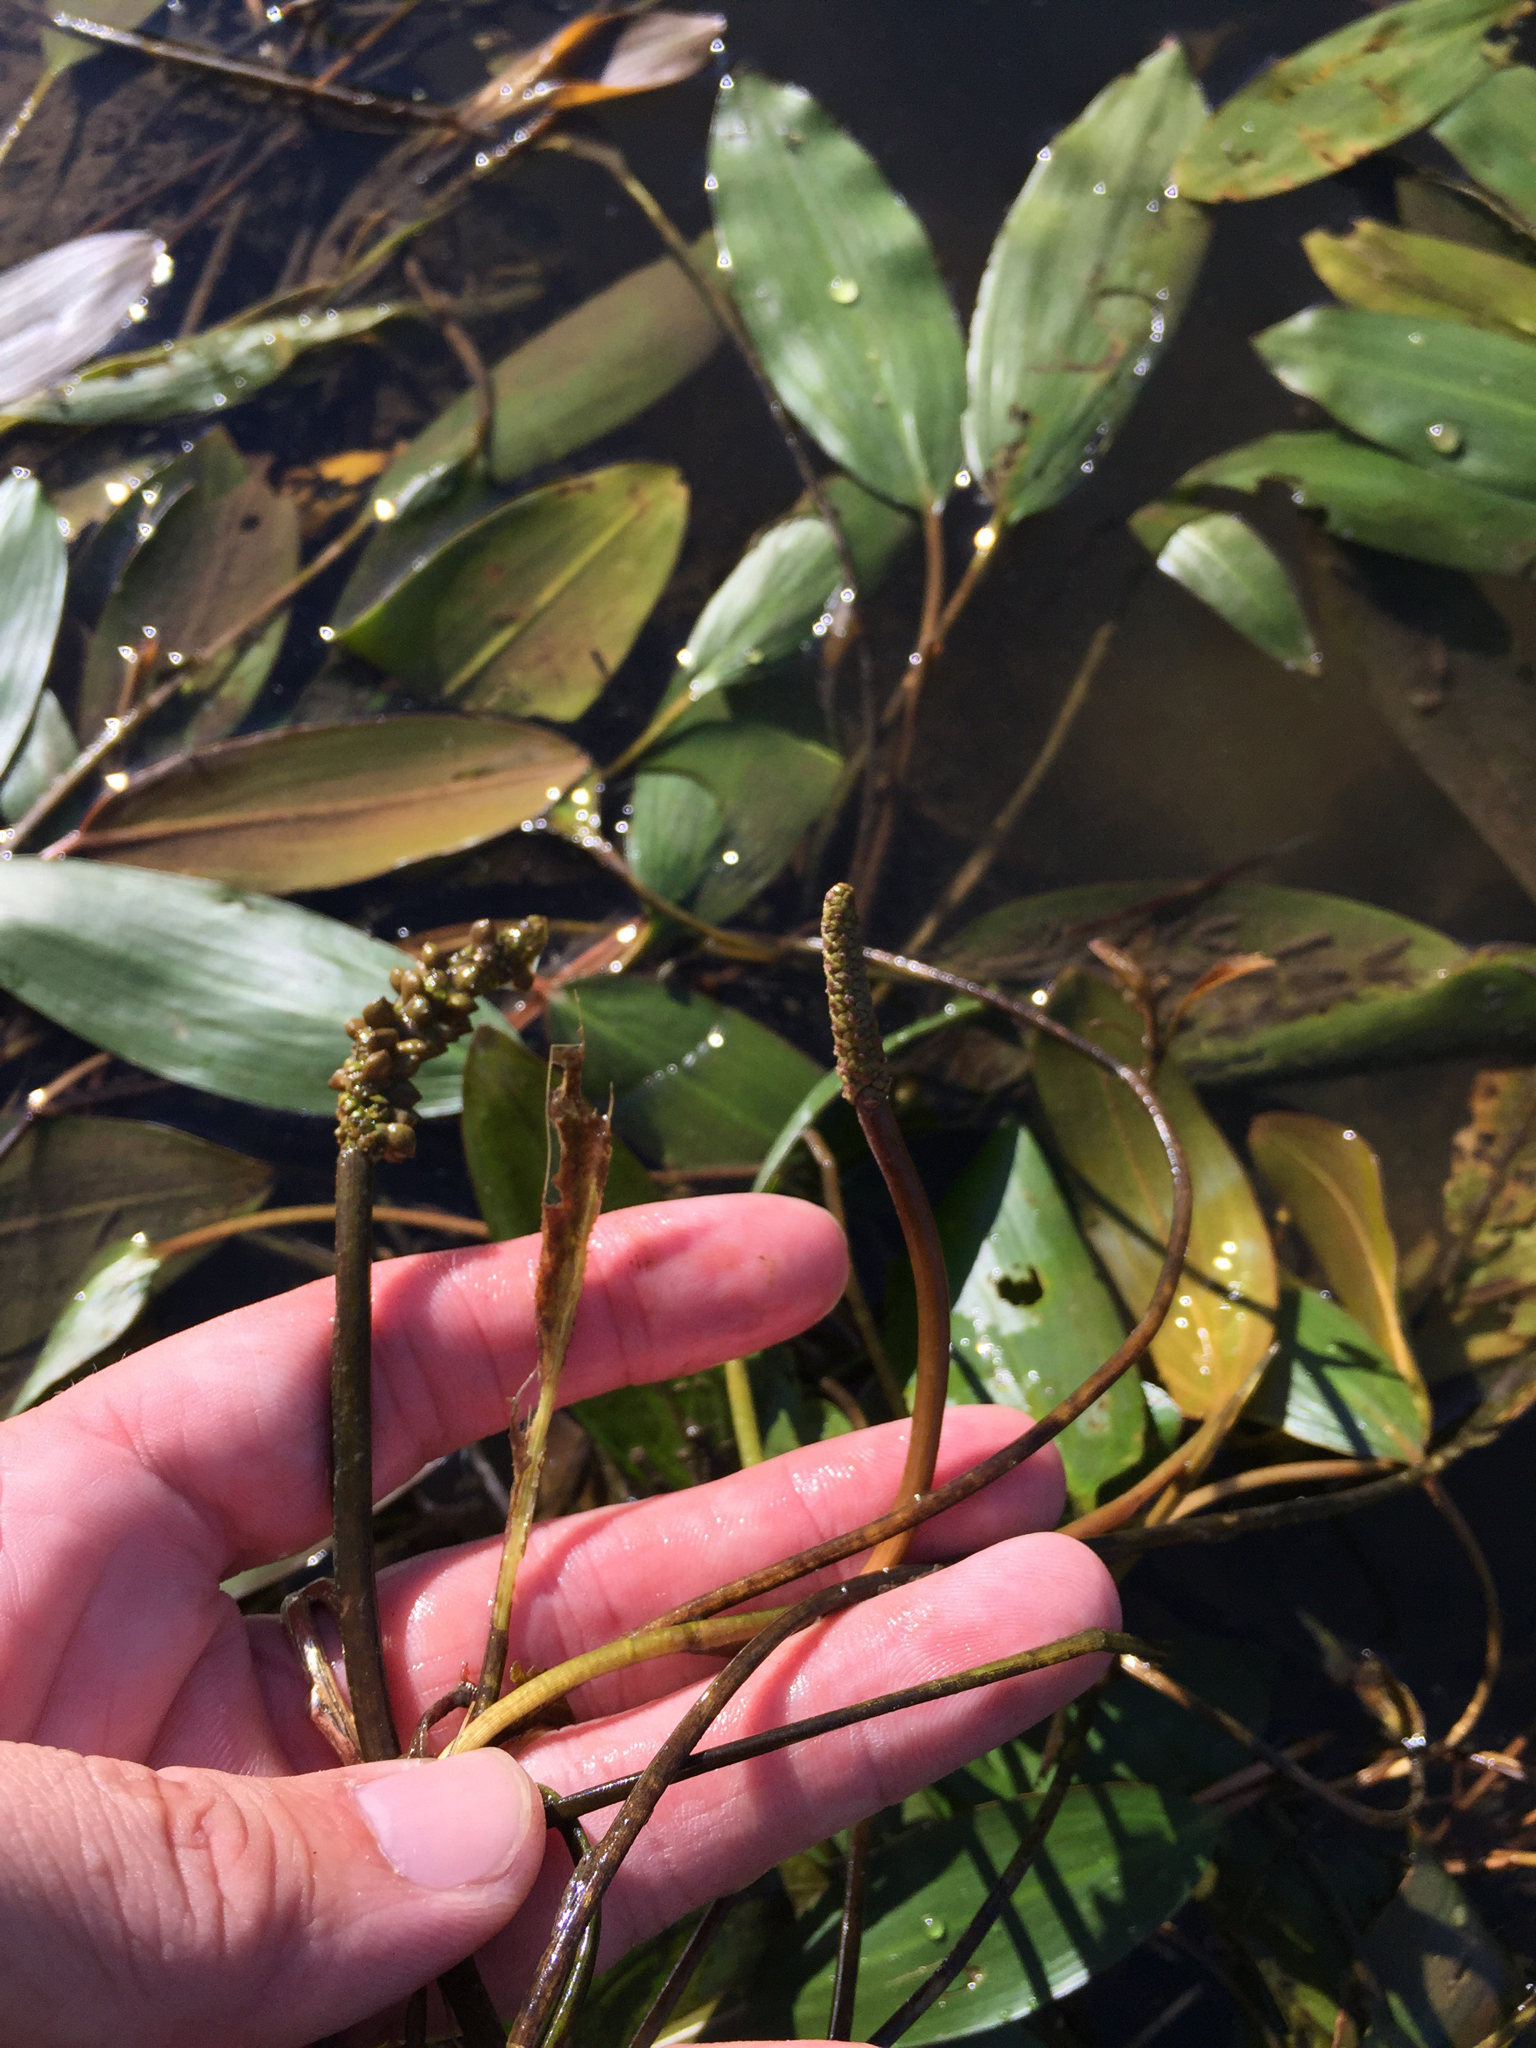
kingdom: Plantae
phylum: Tracheophyta
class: Liliopsida
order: Alismatales
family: Potamogetonaceae
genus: Potamogeton
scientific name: Potamogeton nodosus
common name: Loddon pondweed
